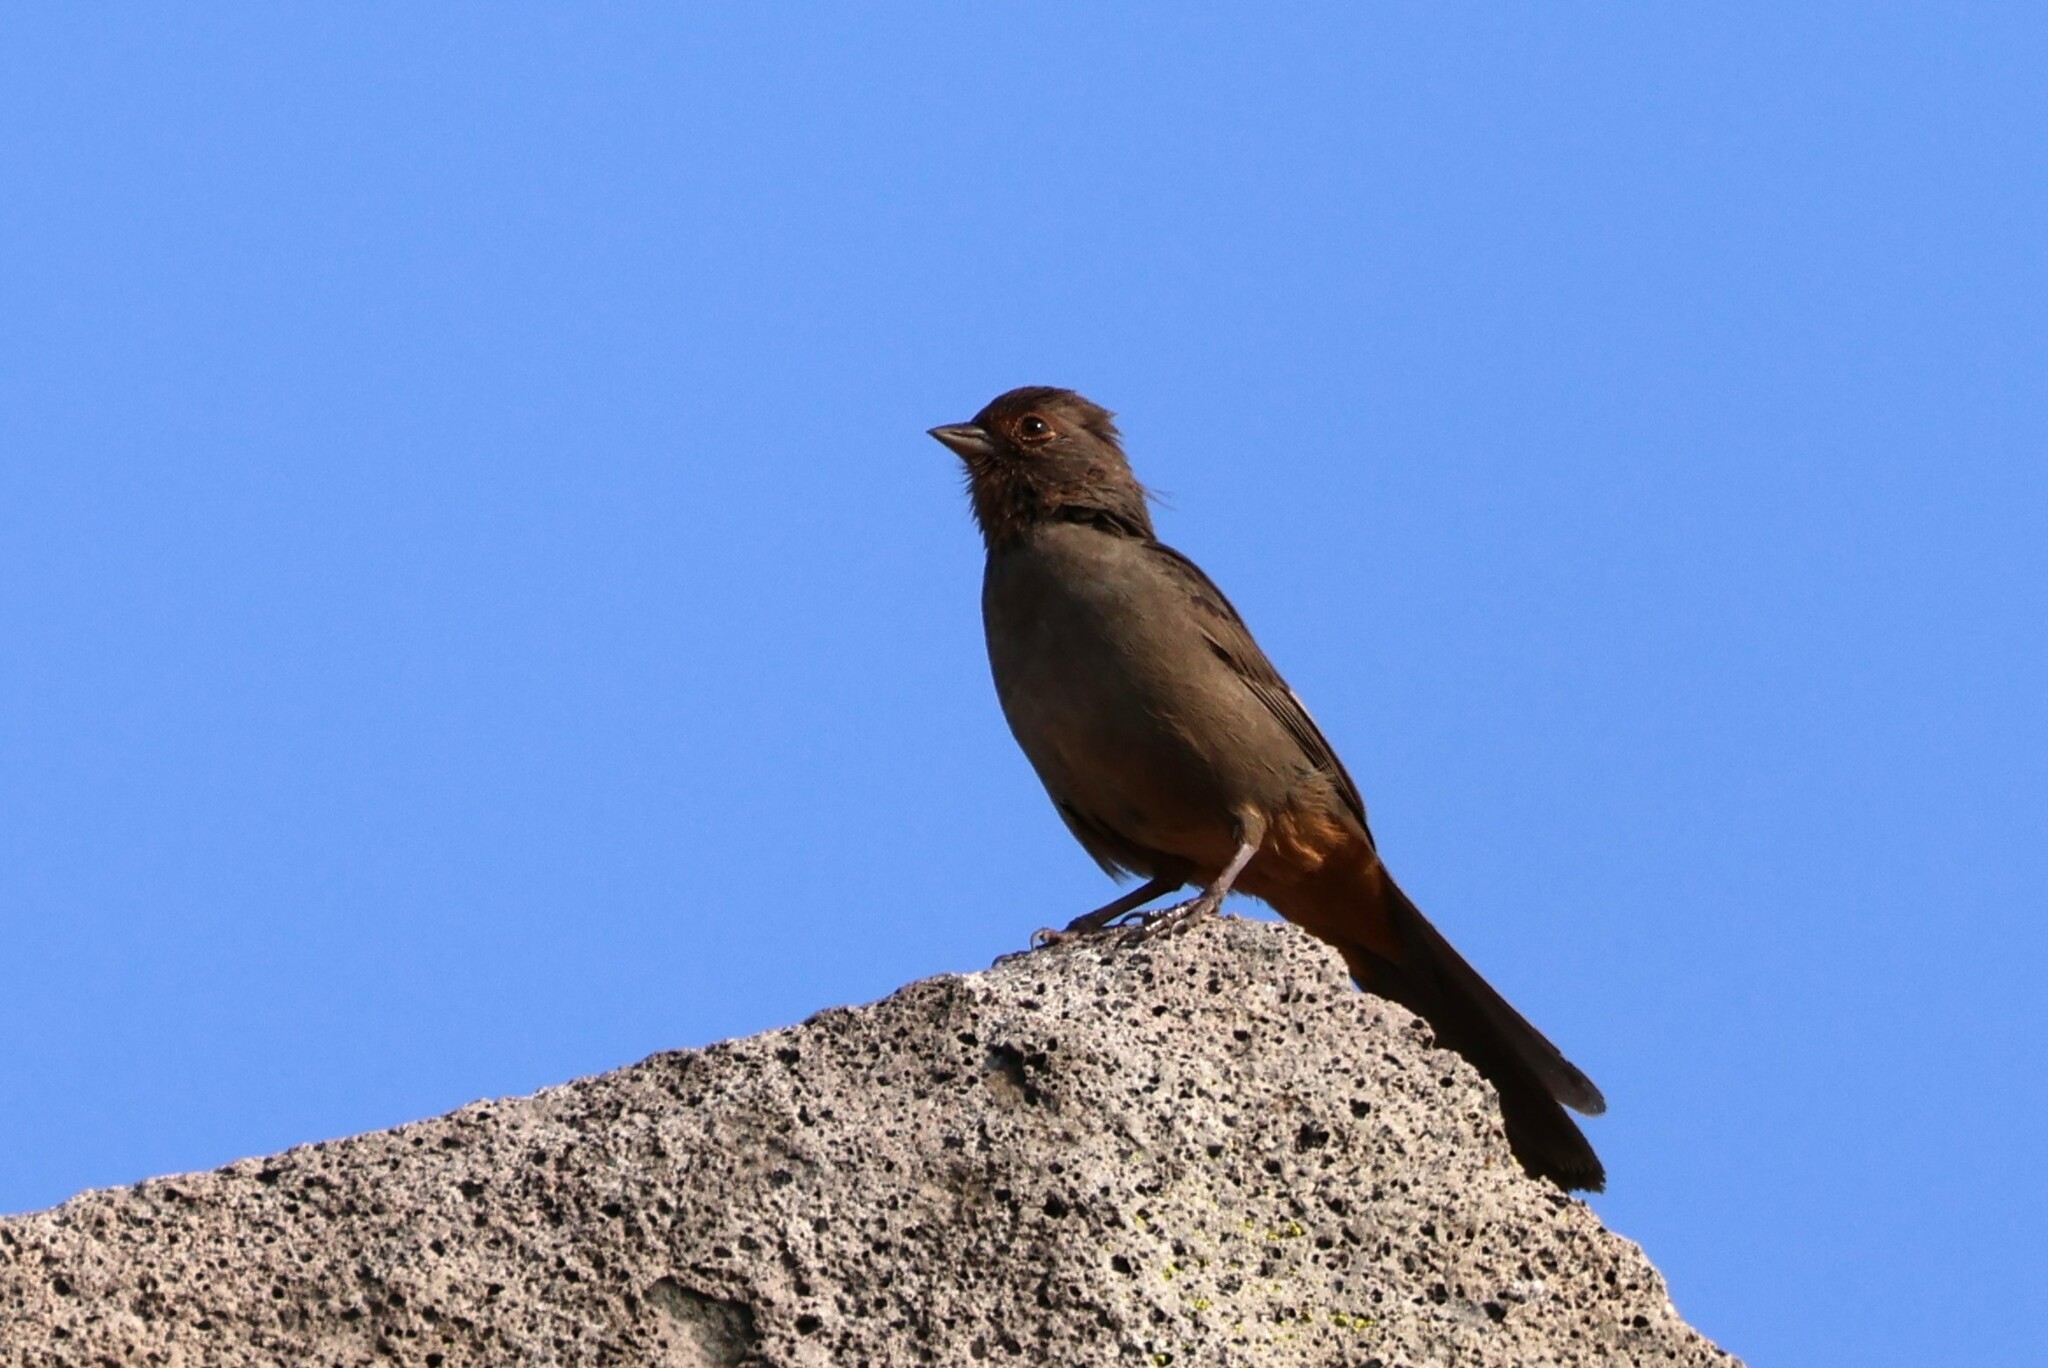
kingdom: Animalia
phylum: Chordata
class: Aves
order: Passeriformes
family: Passerellidae
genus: Melozone
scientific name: Melozone crissalis
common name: California towhee
